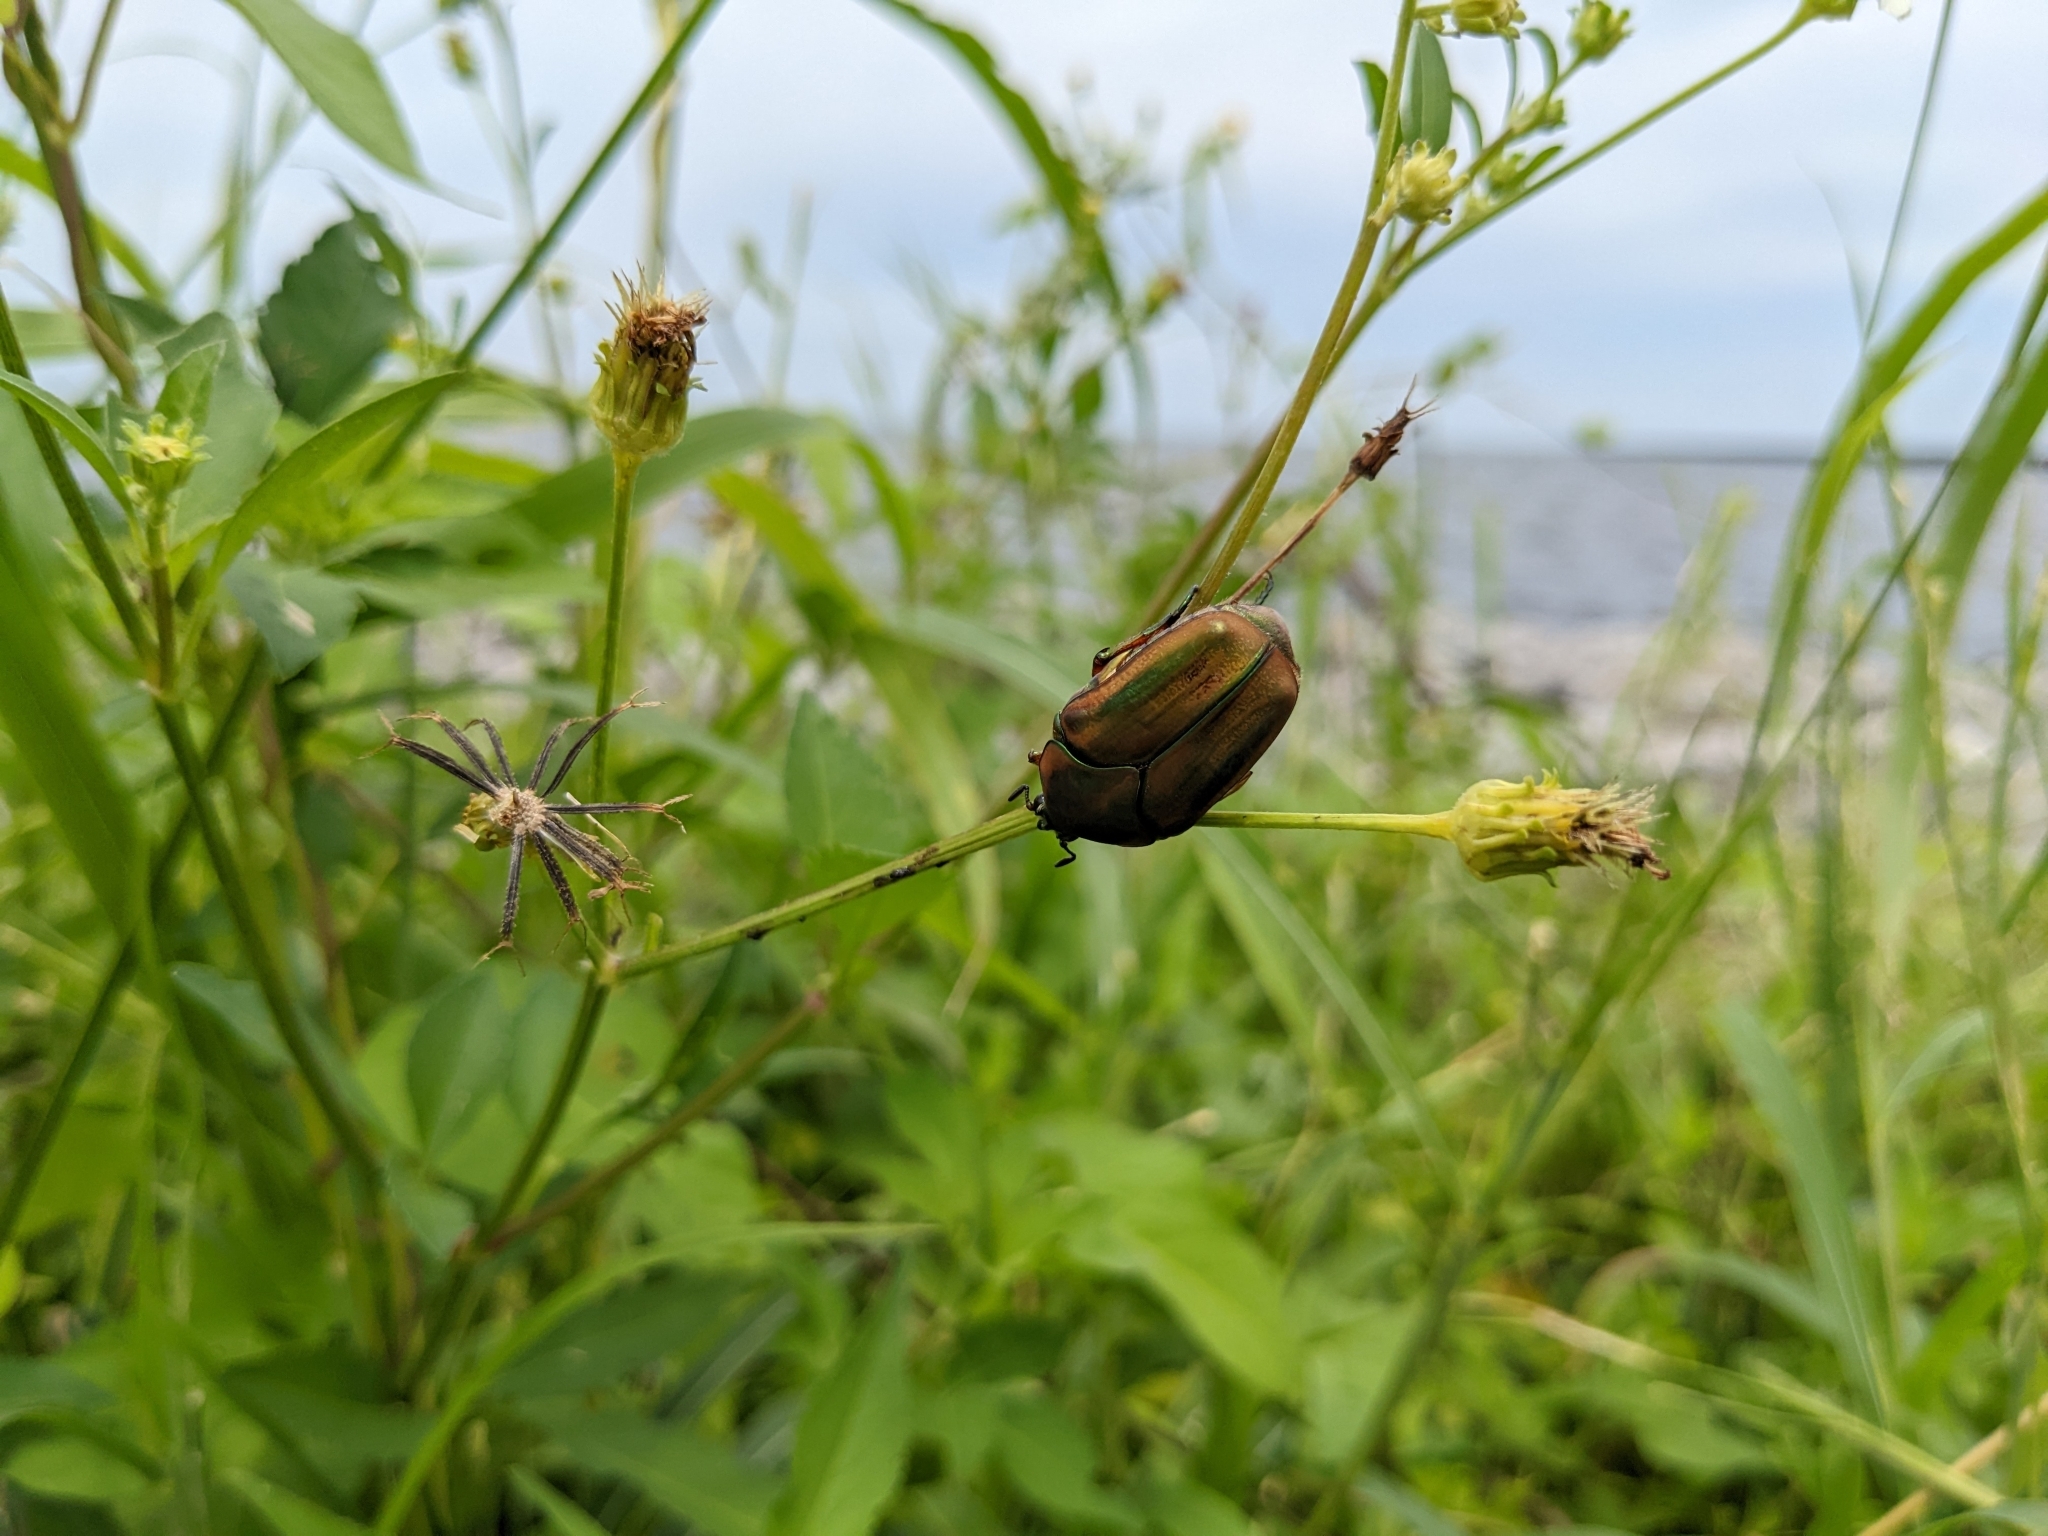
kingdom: Animalia
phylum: Arthropoda
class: Insecta
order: Coleoptera
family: Scarabaeidae
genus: Cotinis
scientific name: Cotinis nitida
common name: Common green june beetle
